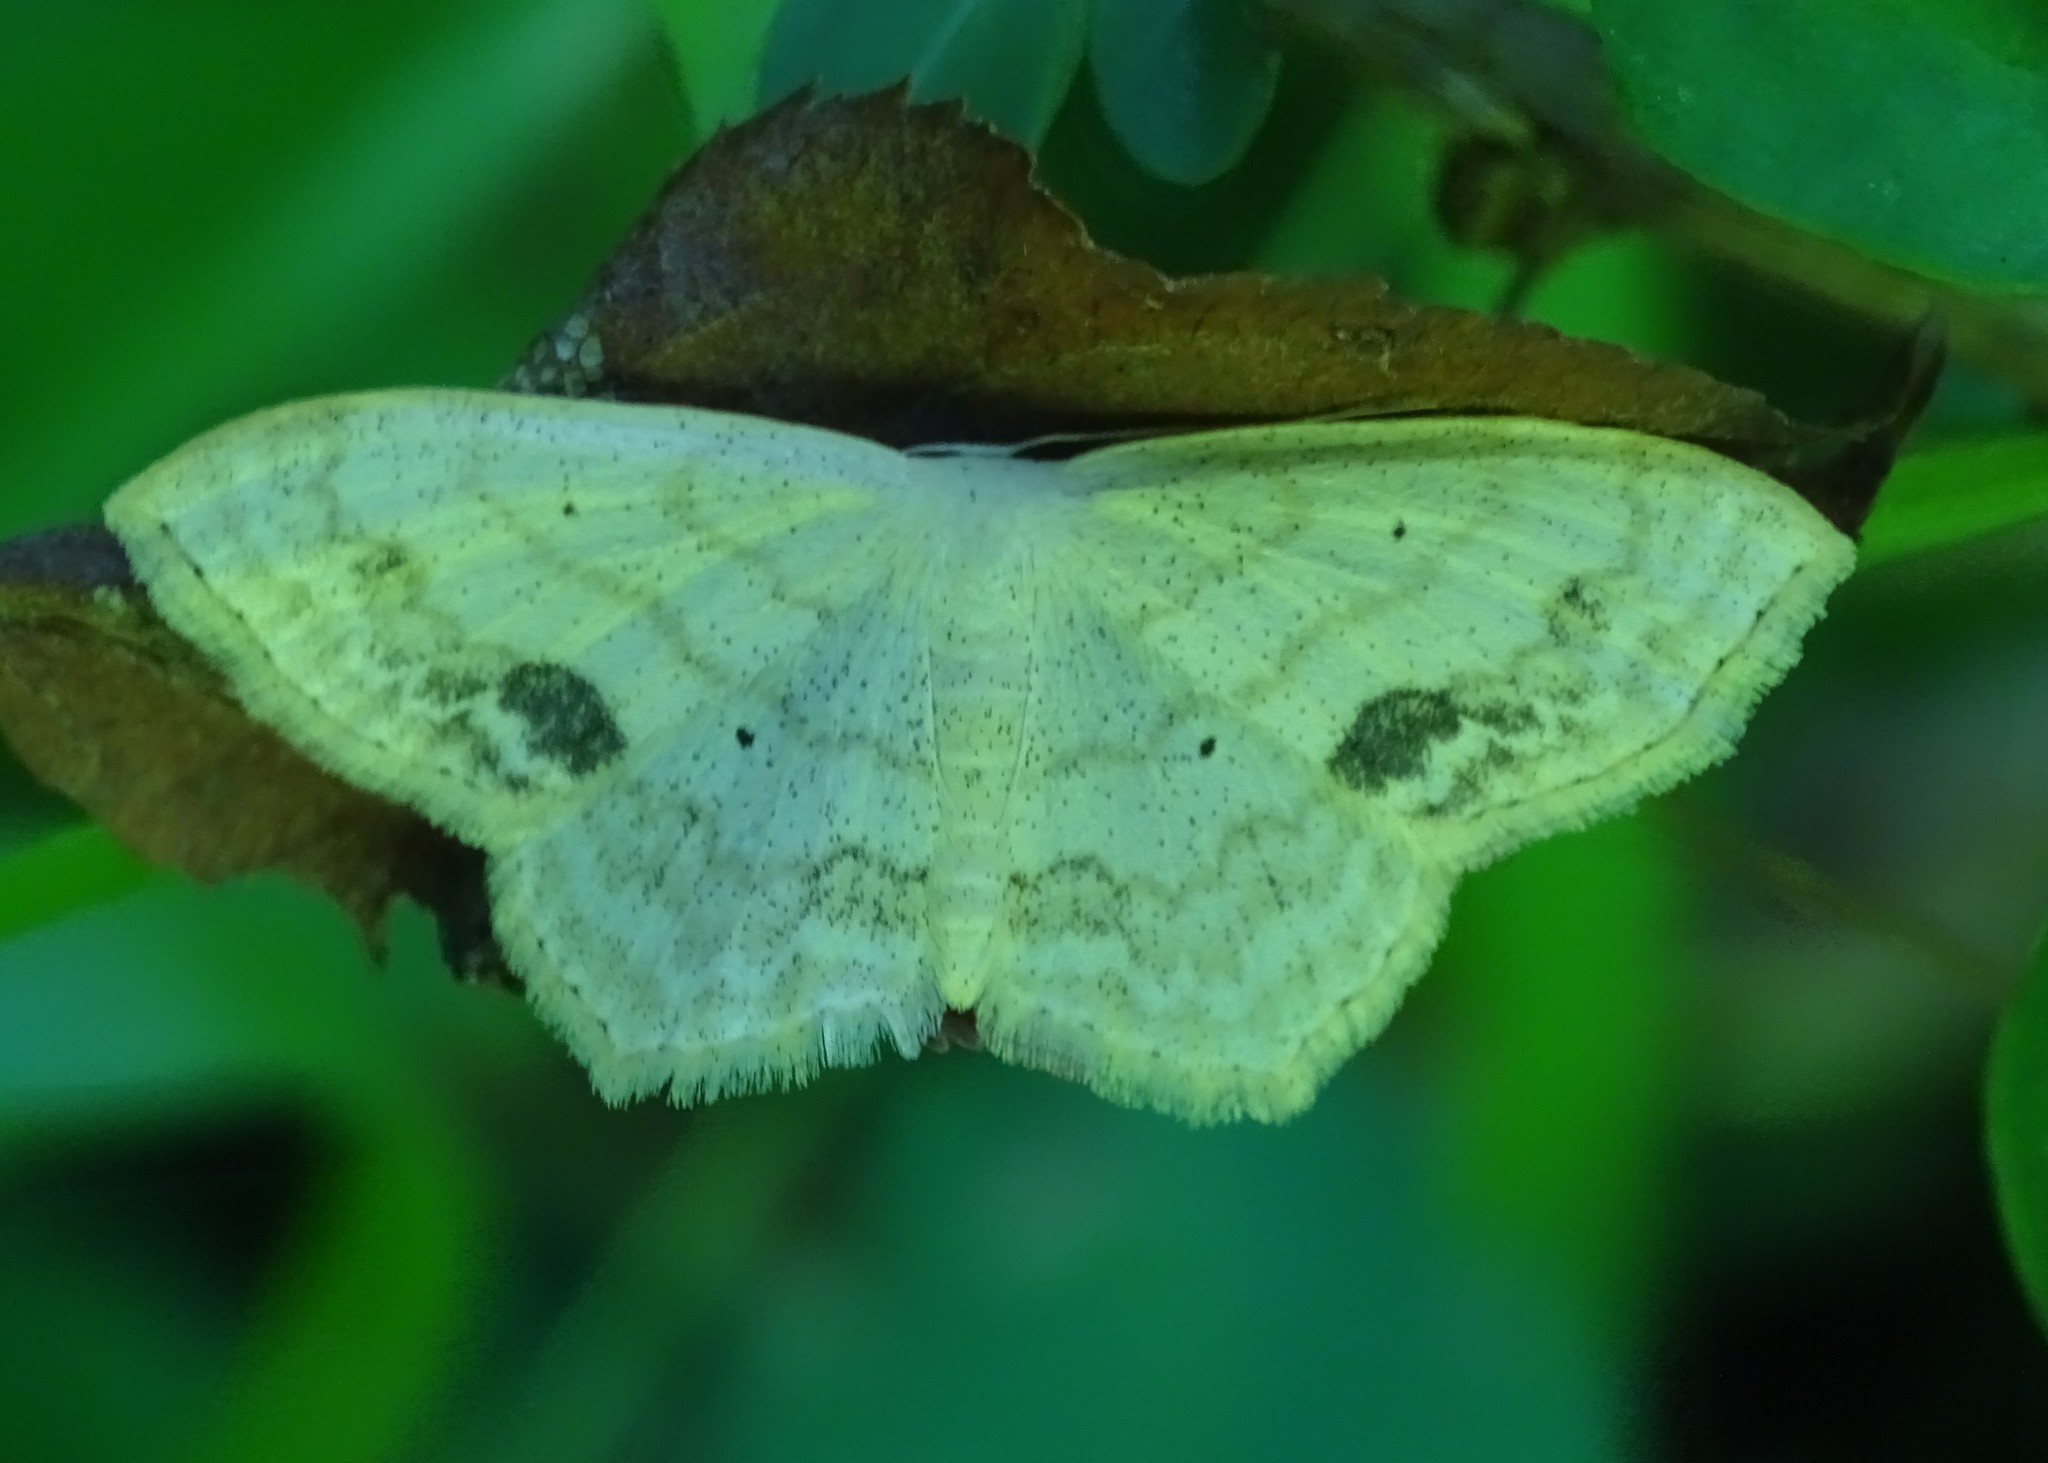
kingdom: Animalia
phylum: Arthropoda
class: Insecta
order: Lepidoptera
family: Geometridae
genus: Scopula
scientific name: Scopula limboundata
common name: Large lace border
